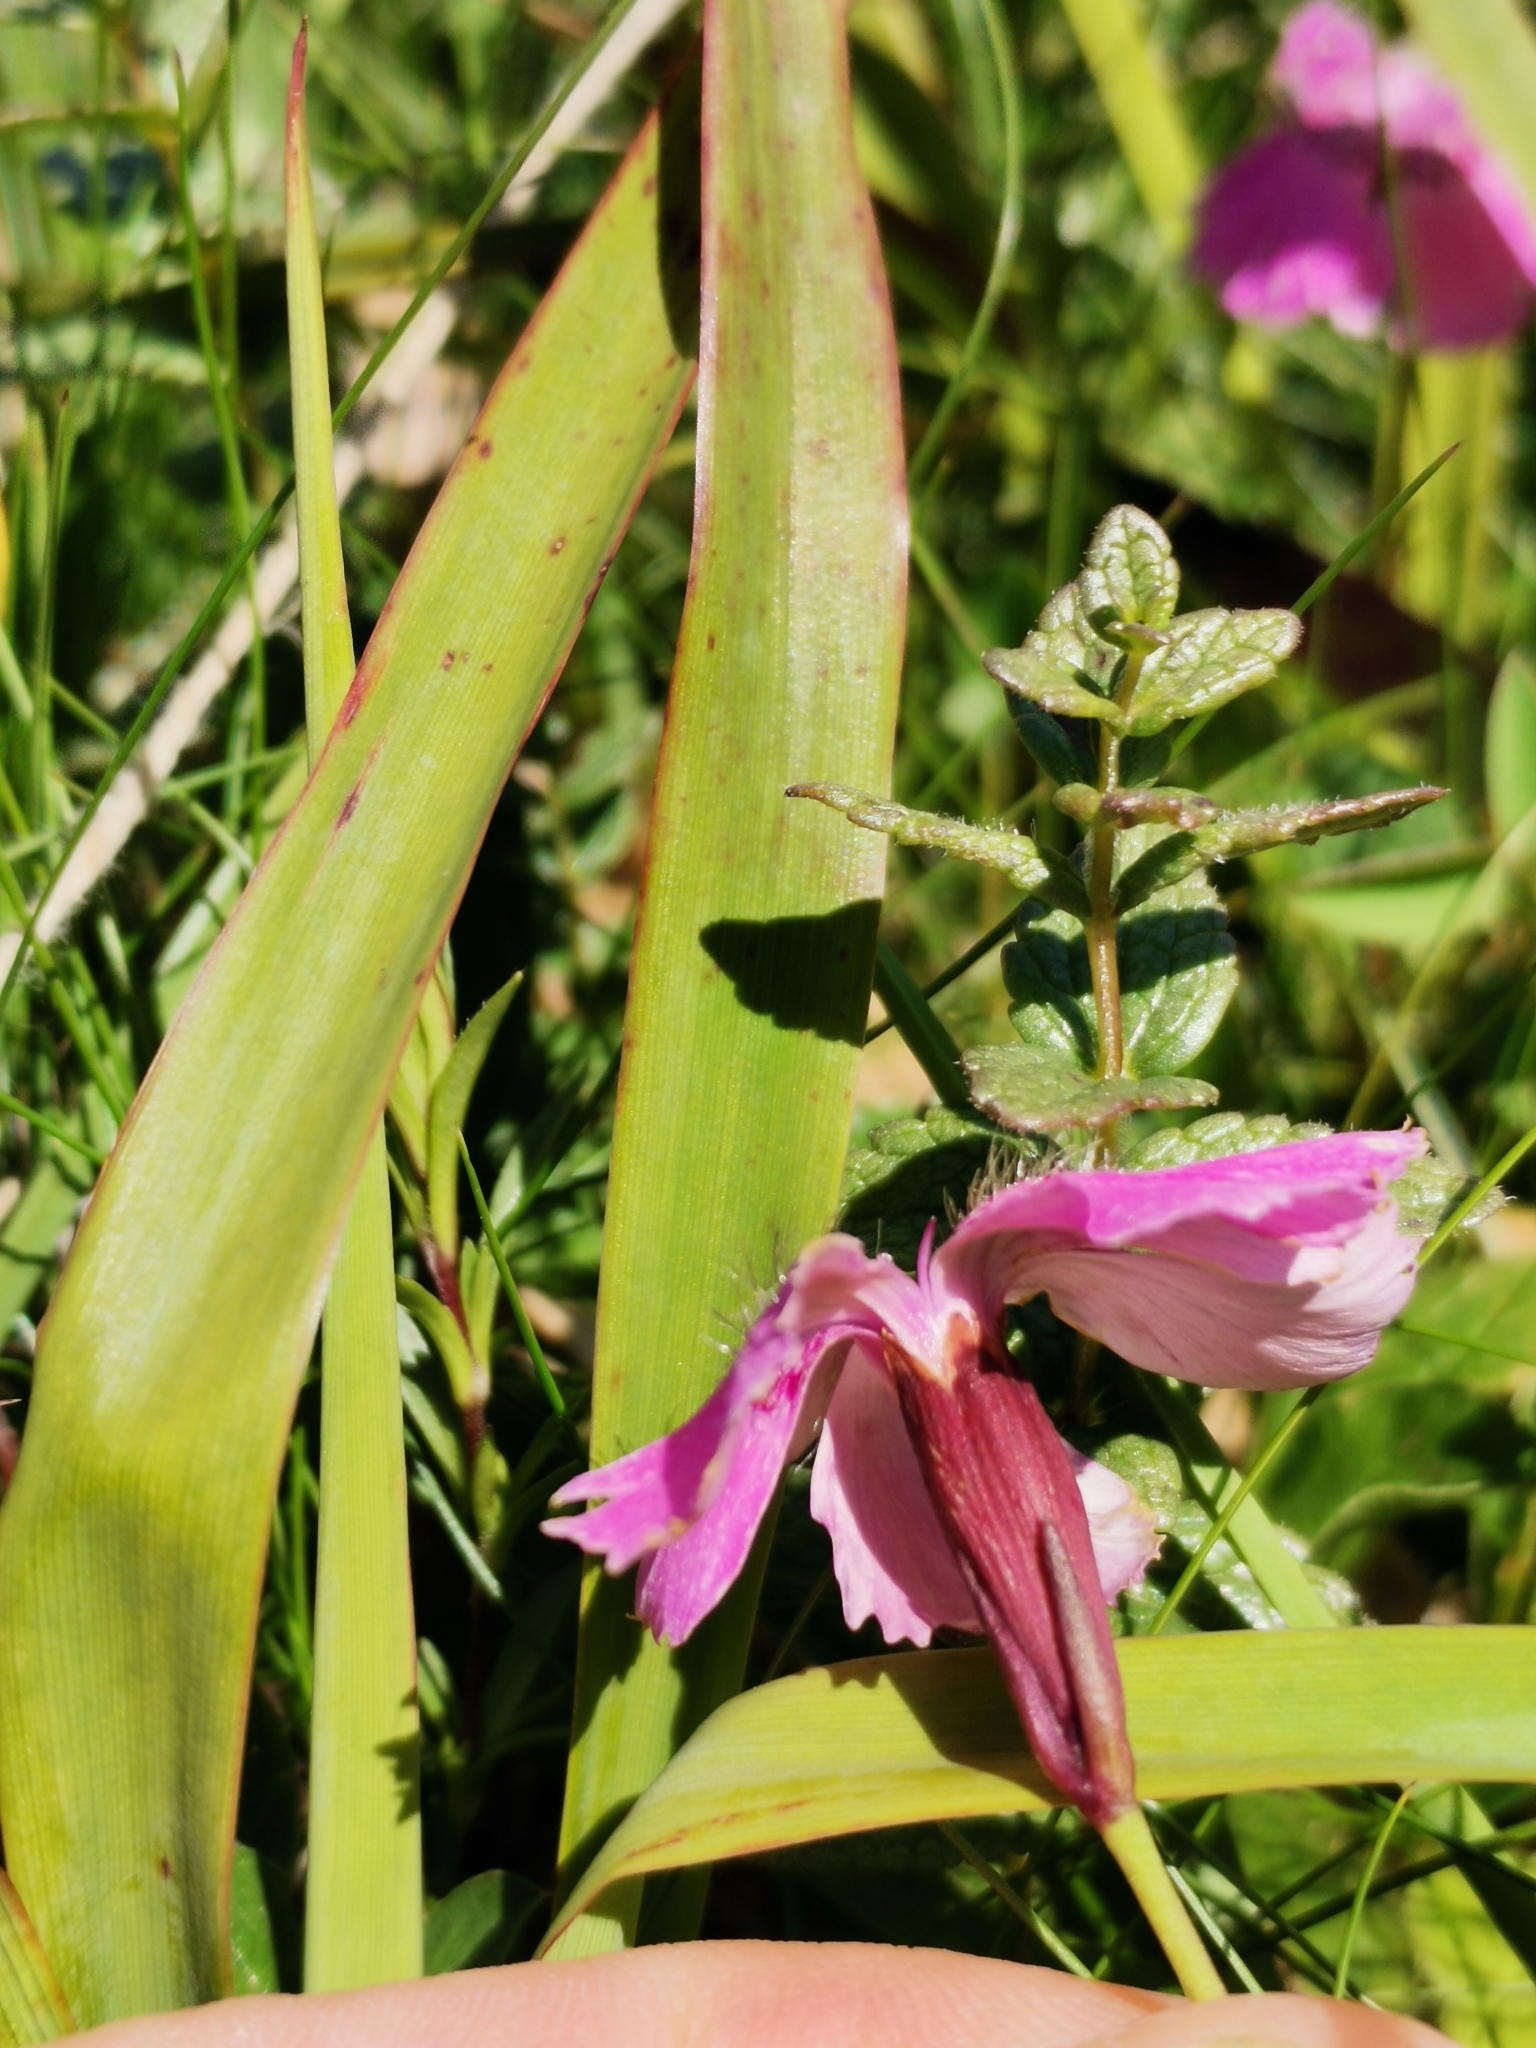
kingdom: Plantae
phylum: Tracheophyta
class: Magnoliopsida
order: Caryophyllales
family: Caryophyllaceae
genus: Dianthus
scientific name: Dianthus alpinus
